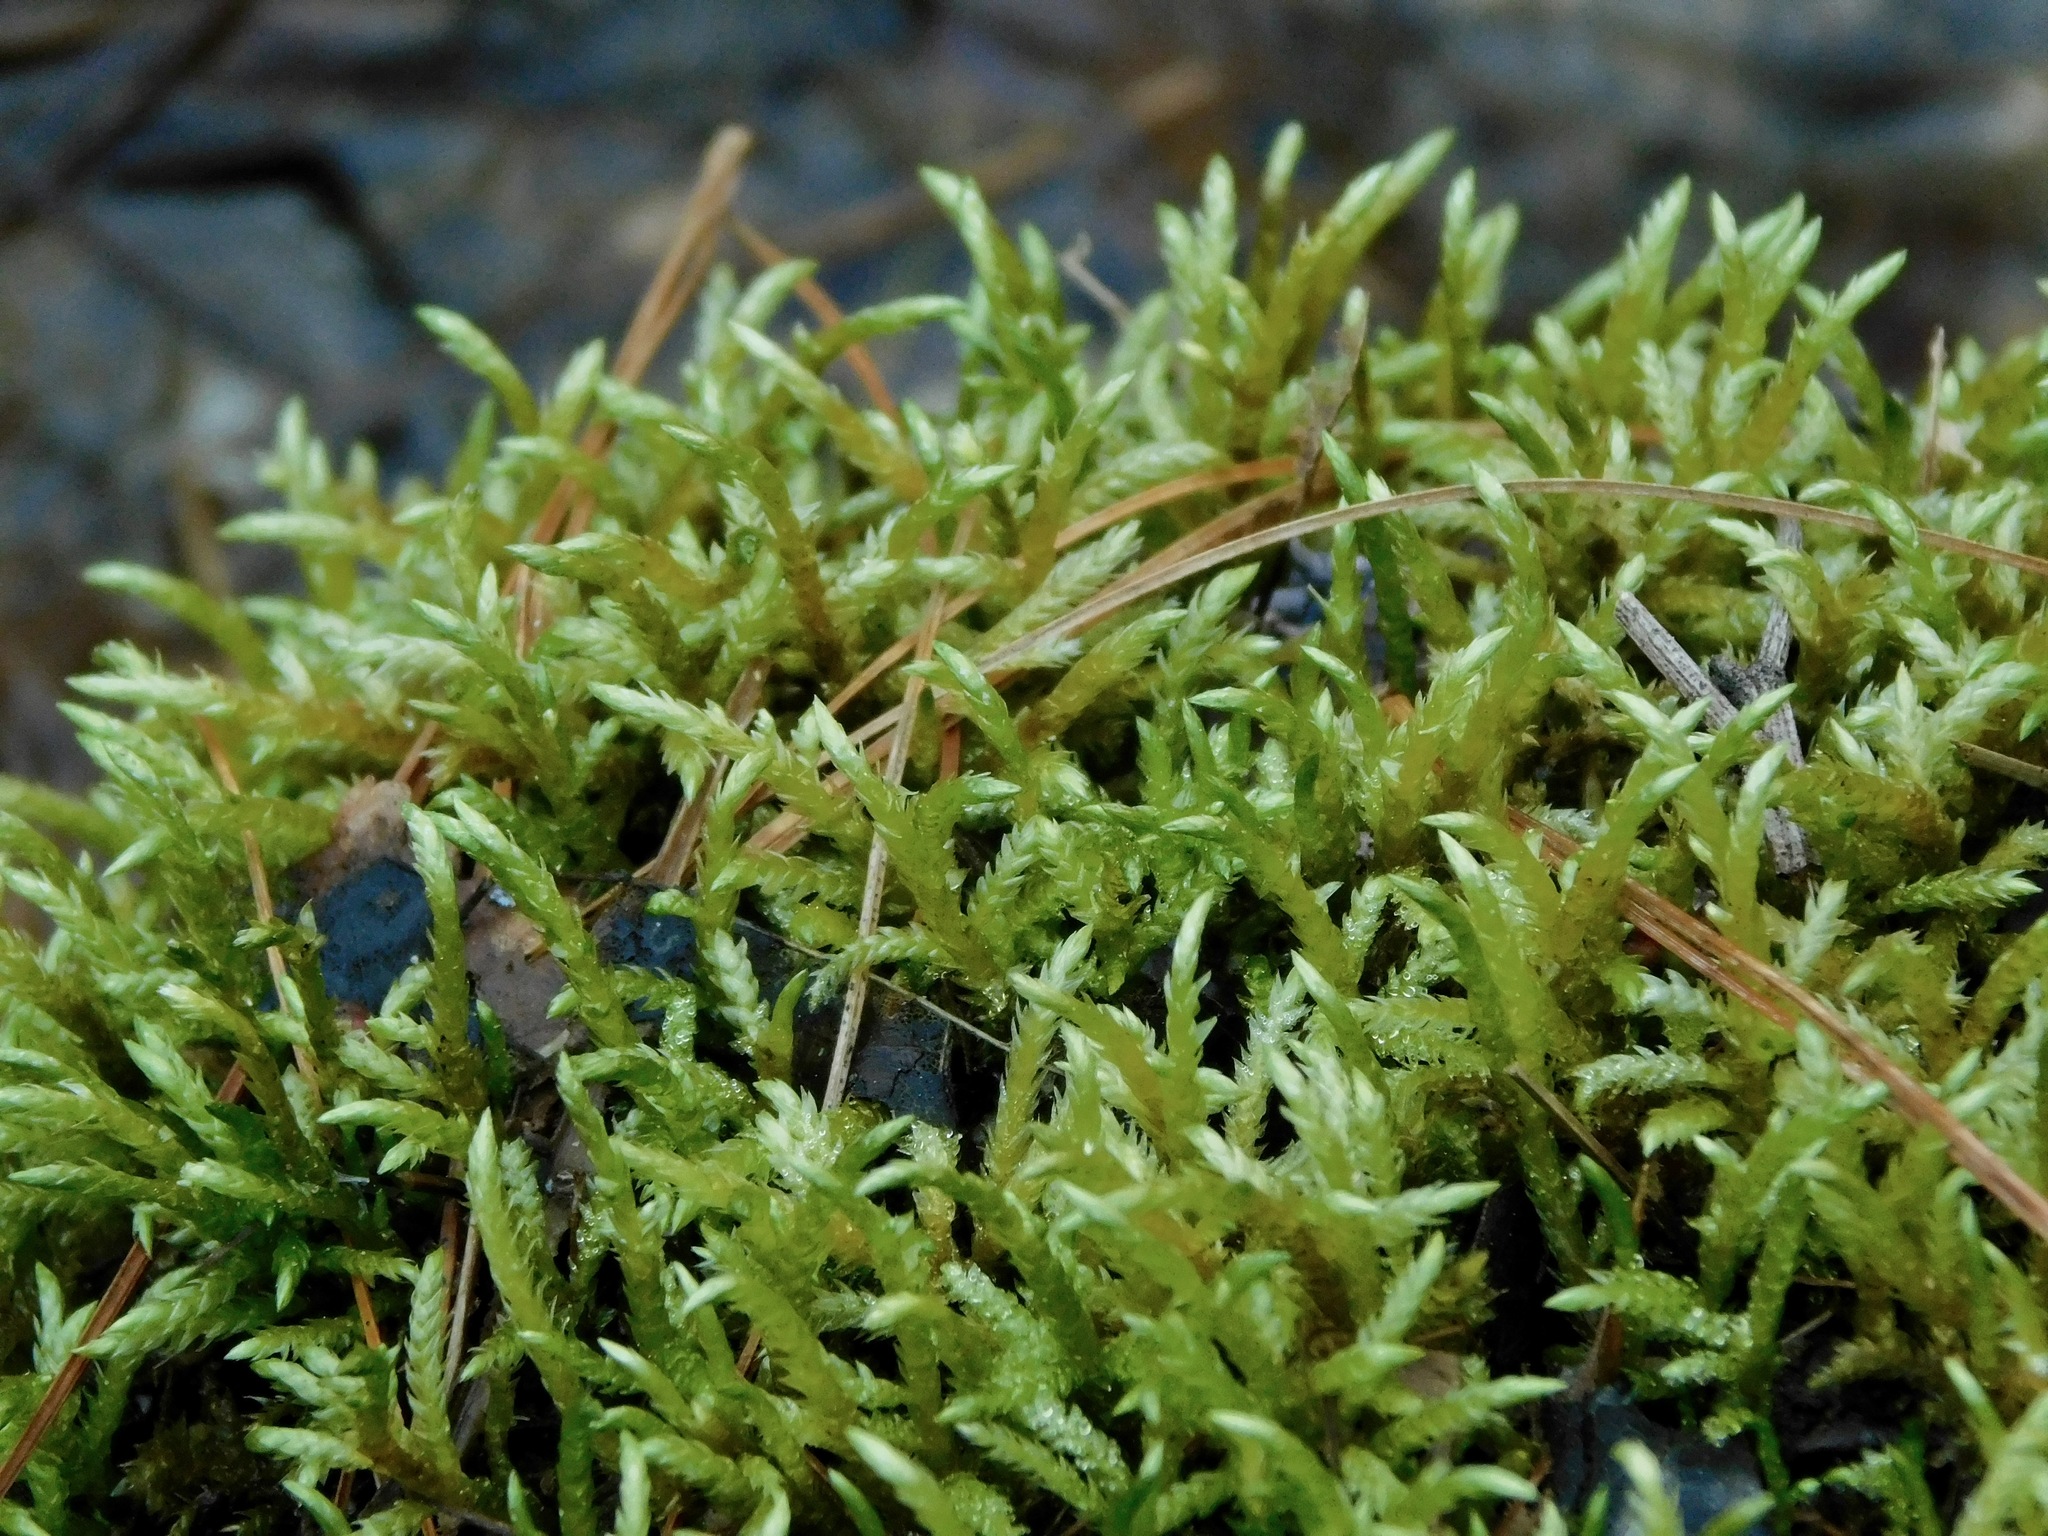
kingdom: Plantae
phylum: Bryophyta
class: Bryopsida
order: Hypnales
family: Hylocomiaceae
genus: Pleurozium
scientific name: Pleurozium schreberi
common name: Red-stemmed feather moss
